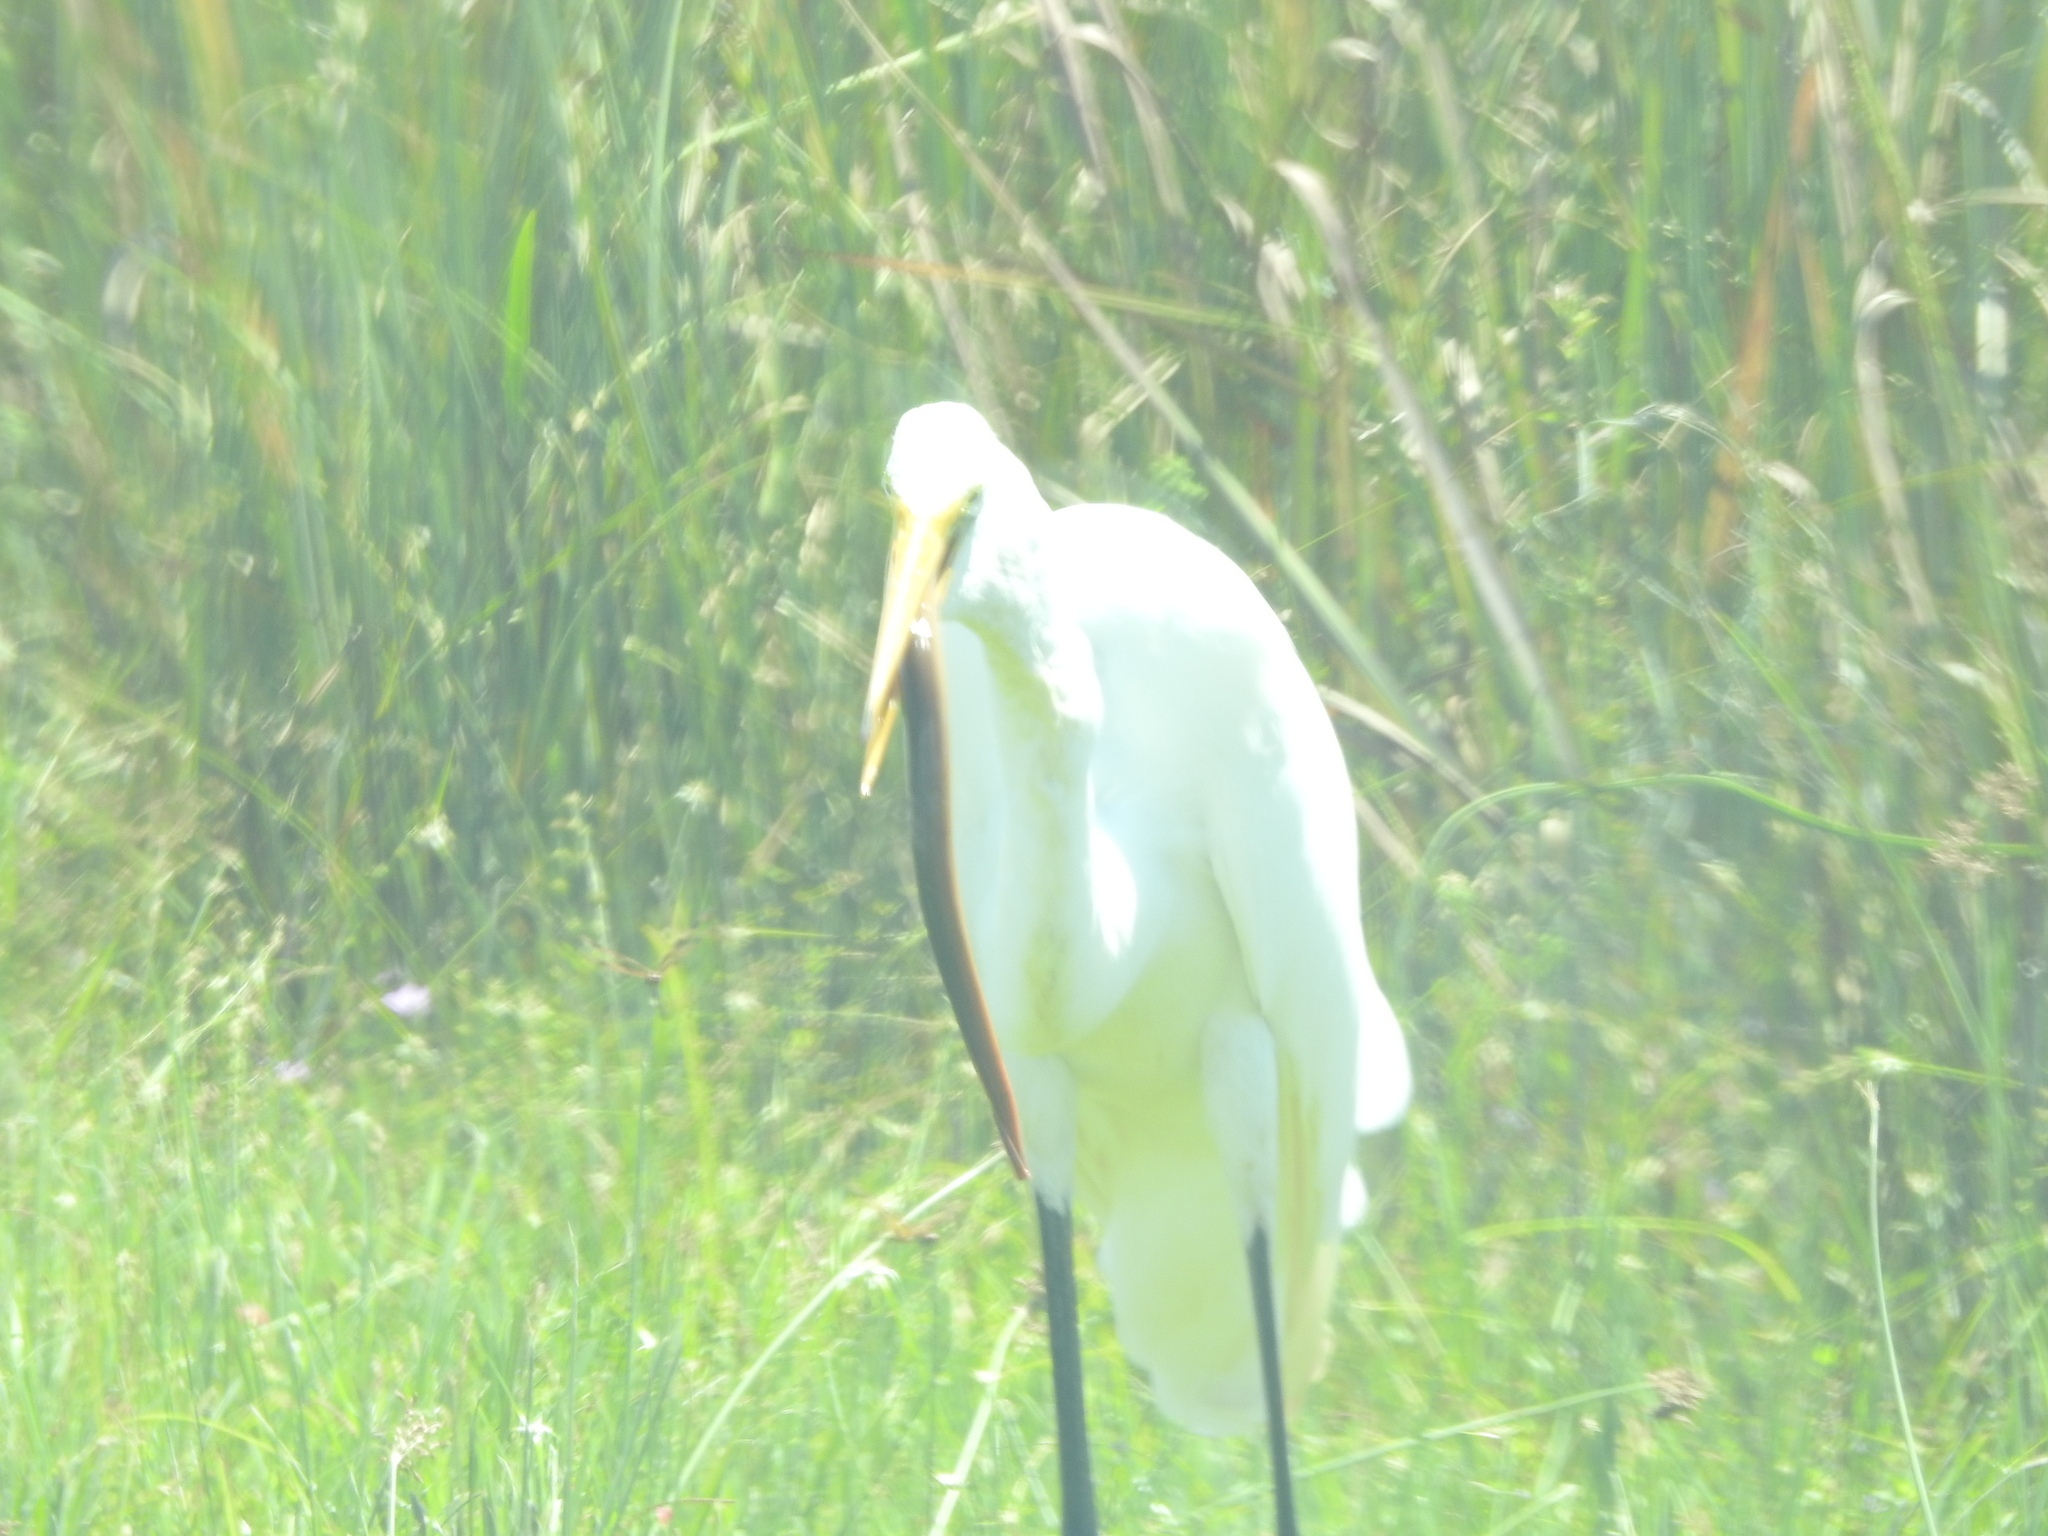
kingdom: Animalia
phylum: Chordata
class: Aves
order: Pelecaniformes
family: Ardeidae
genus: Ardea
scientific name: Ardea alba
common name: Great egret
